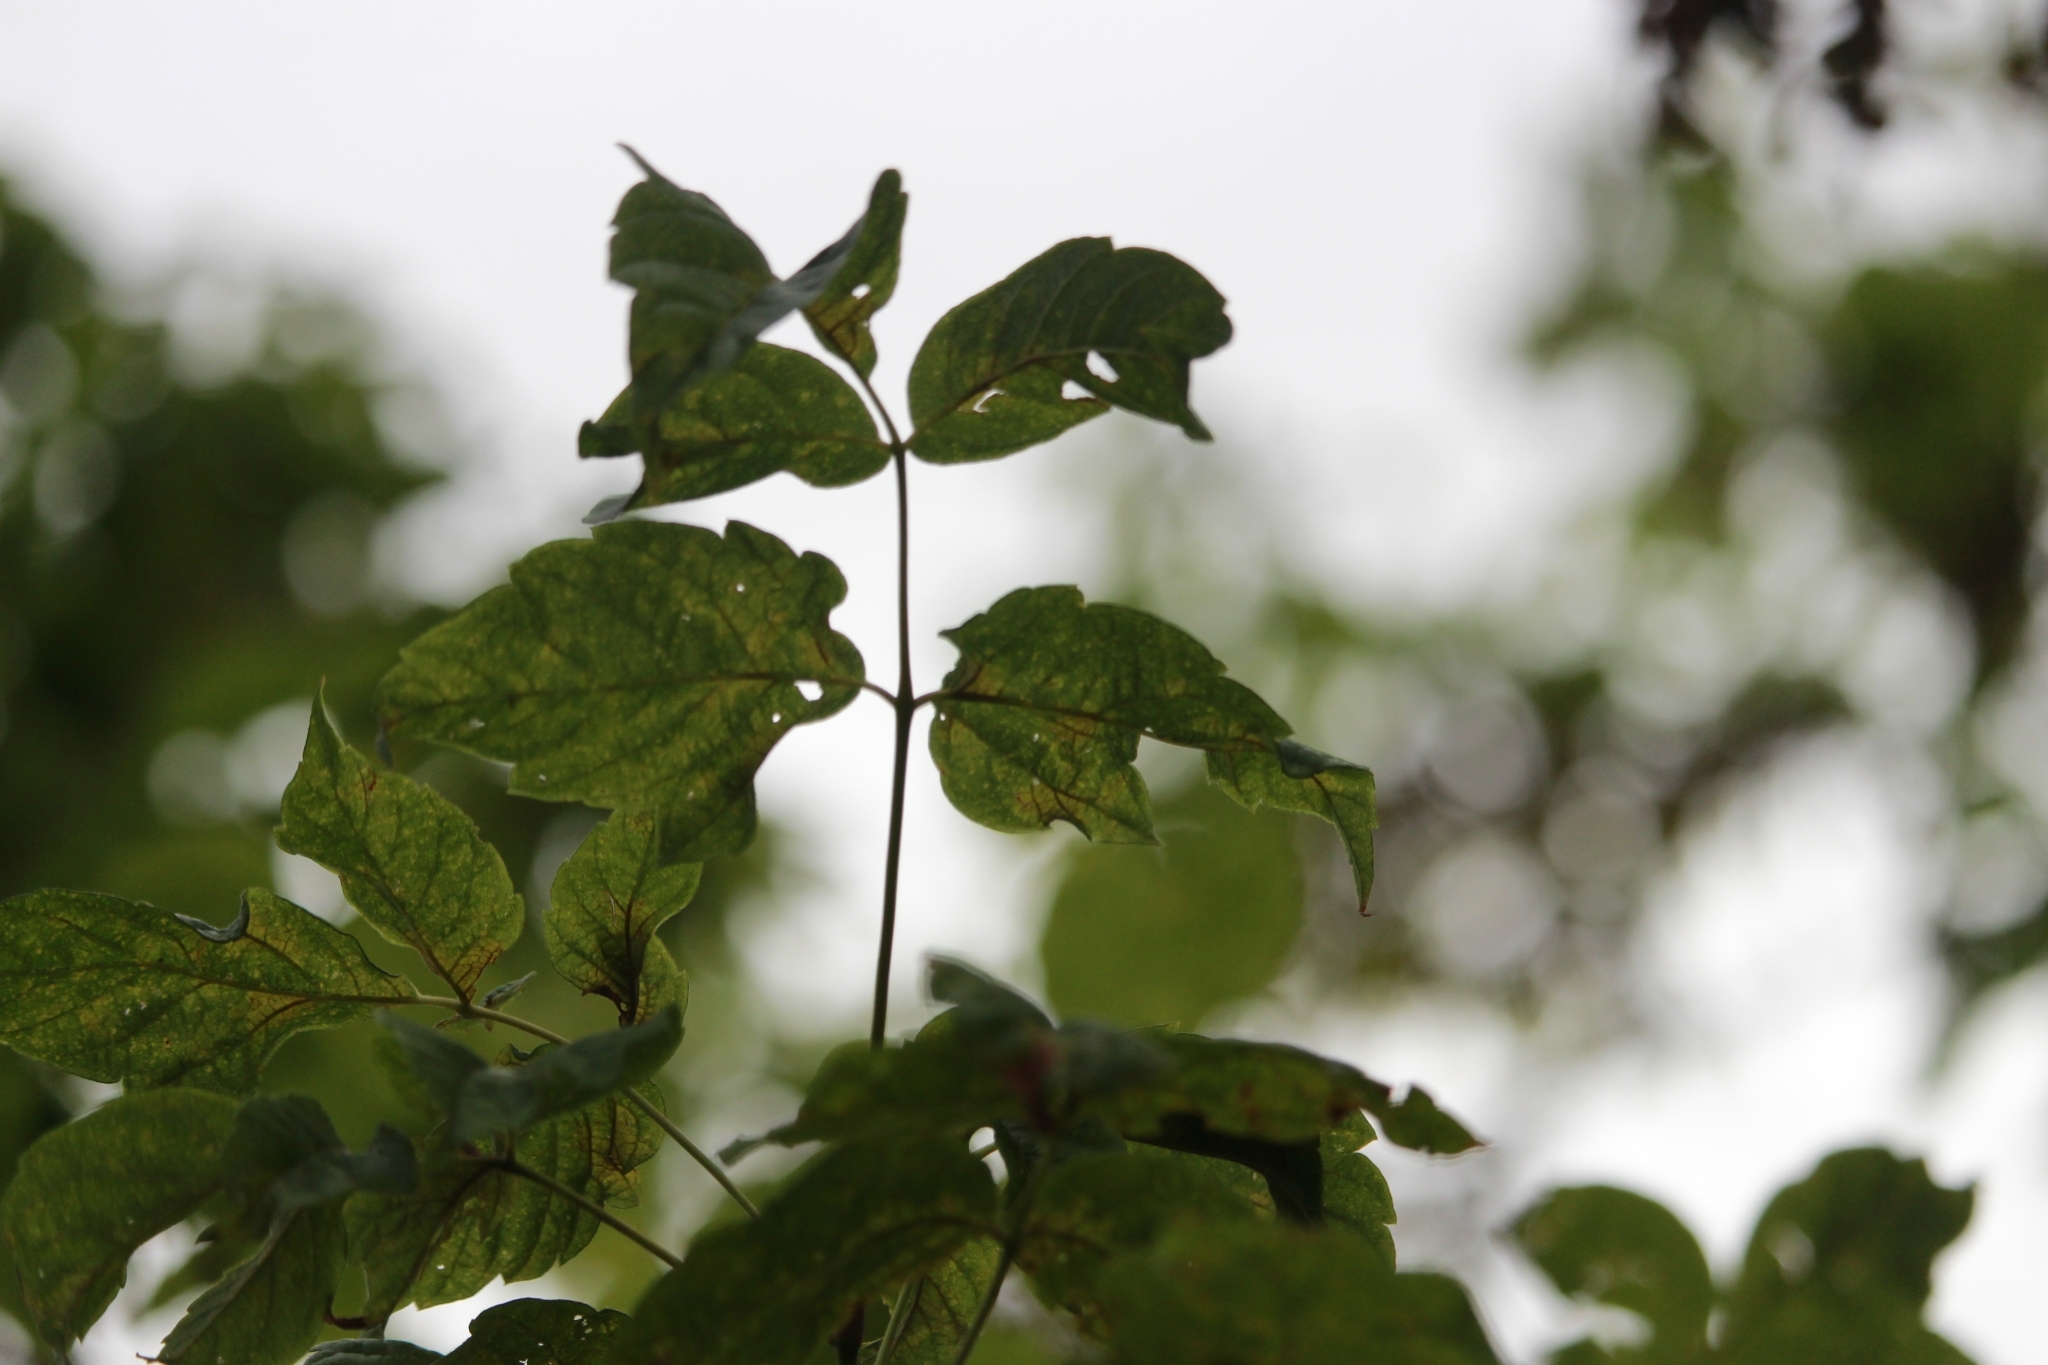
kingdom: Plantae
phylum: Tracheophyta
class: Magnoliopsida
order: Sapindales
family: Sapindaceae
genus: Acer
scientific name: Acer negundo
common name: Ashleaf maple
